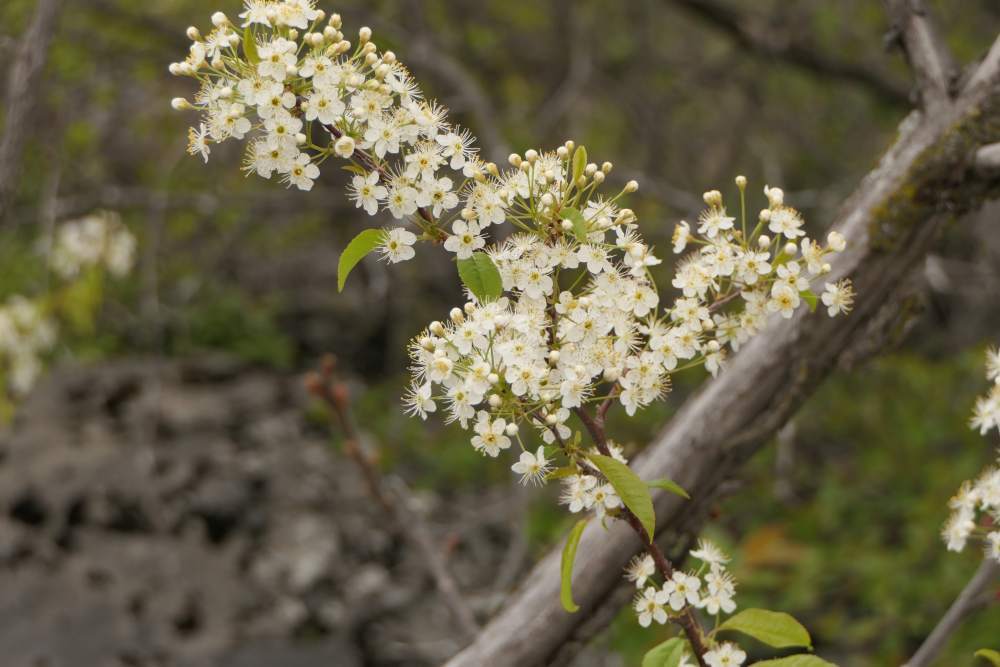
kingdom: Plantae
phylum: Tracheophyta
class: Magnoliopsida
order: Rosales
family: Rosaceae
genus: Prunus
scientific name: Prunus pensylvanica
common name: Pin cherry
